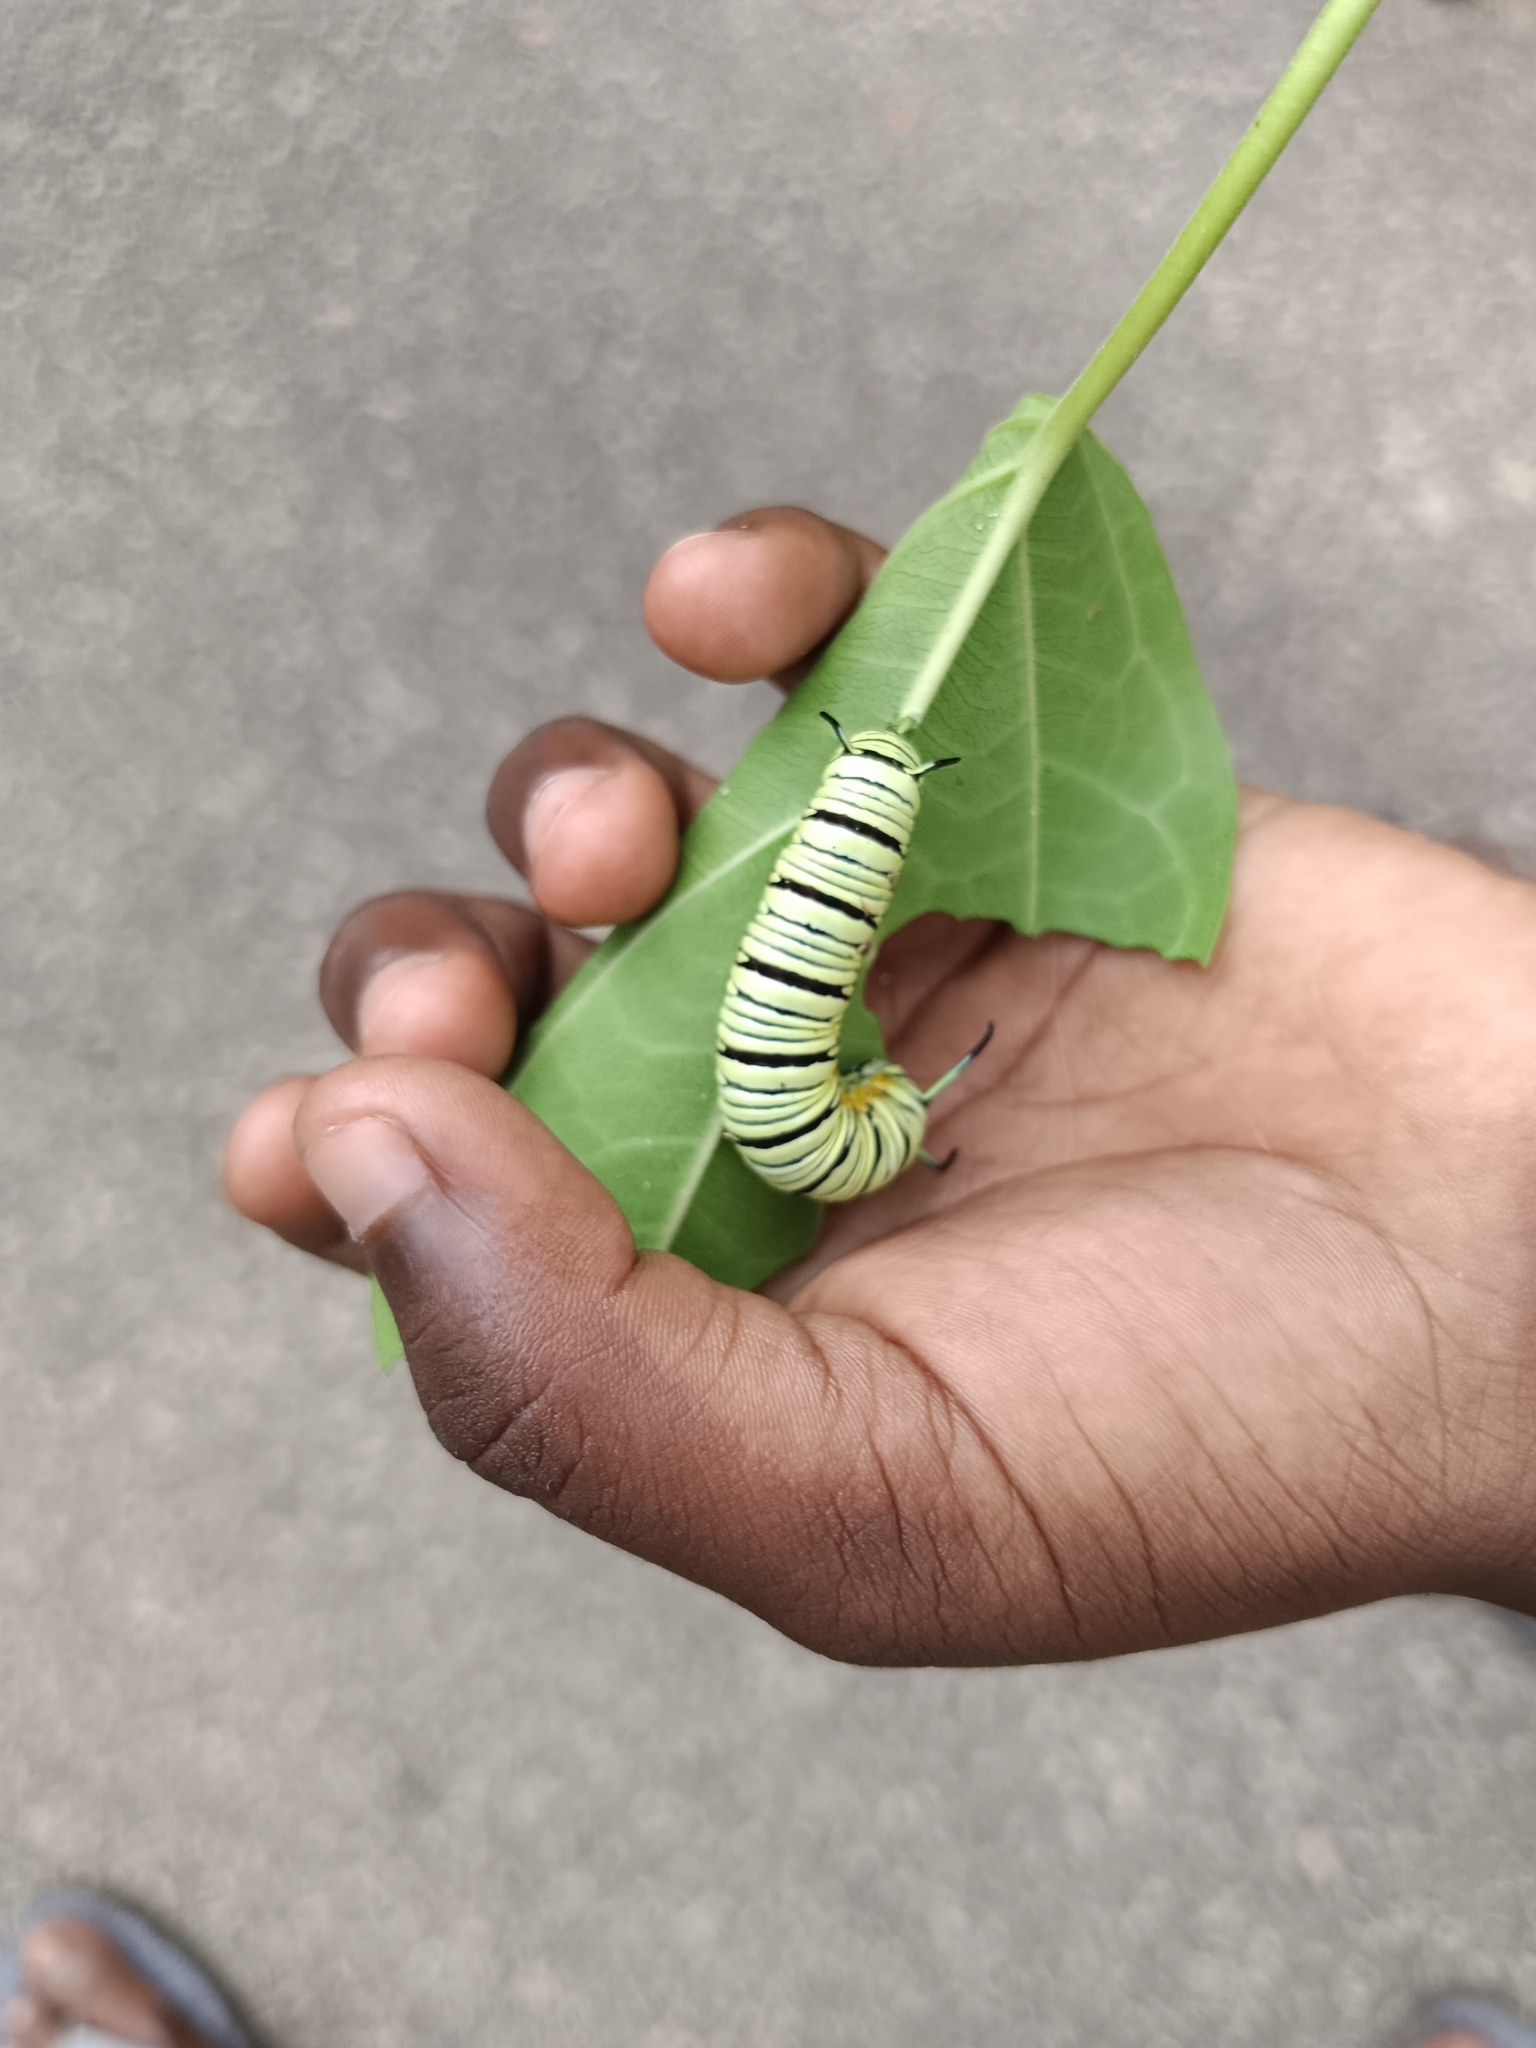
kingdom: Animalia
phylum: Arthropoda
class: Insecta
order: Lepidoptera
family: Nymphalidae
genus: Tirumala
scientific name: Tirumala limniace
